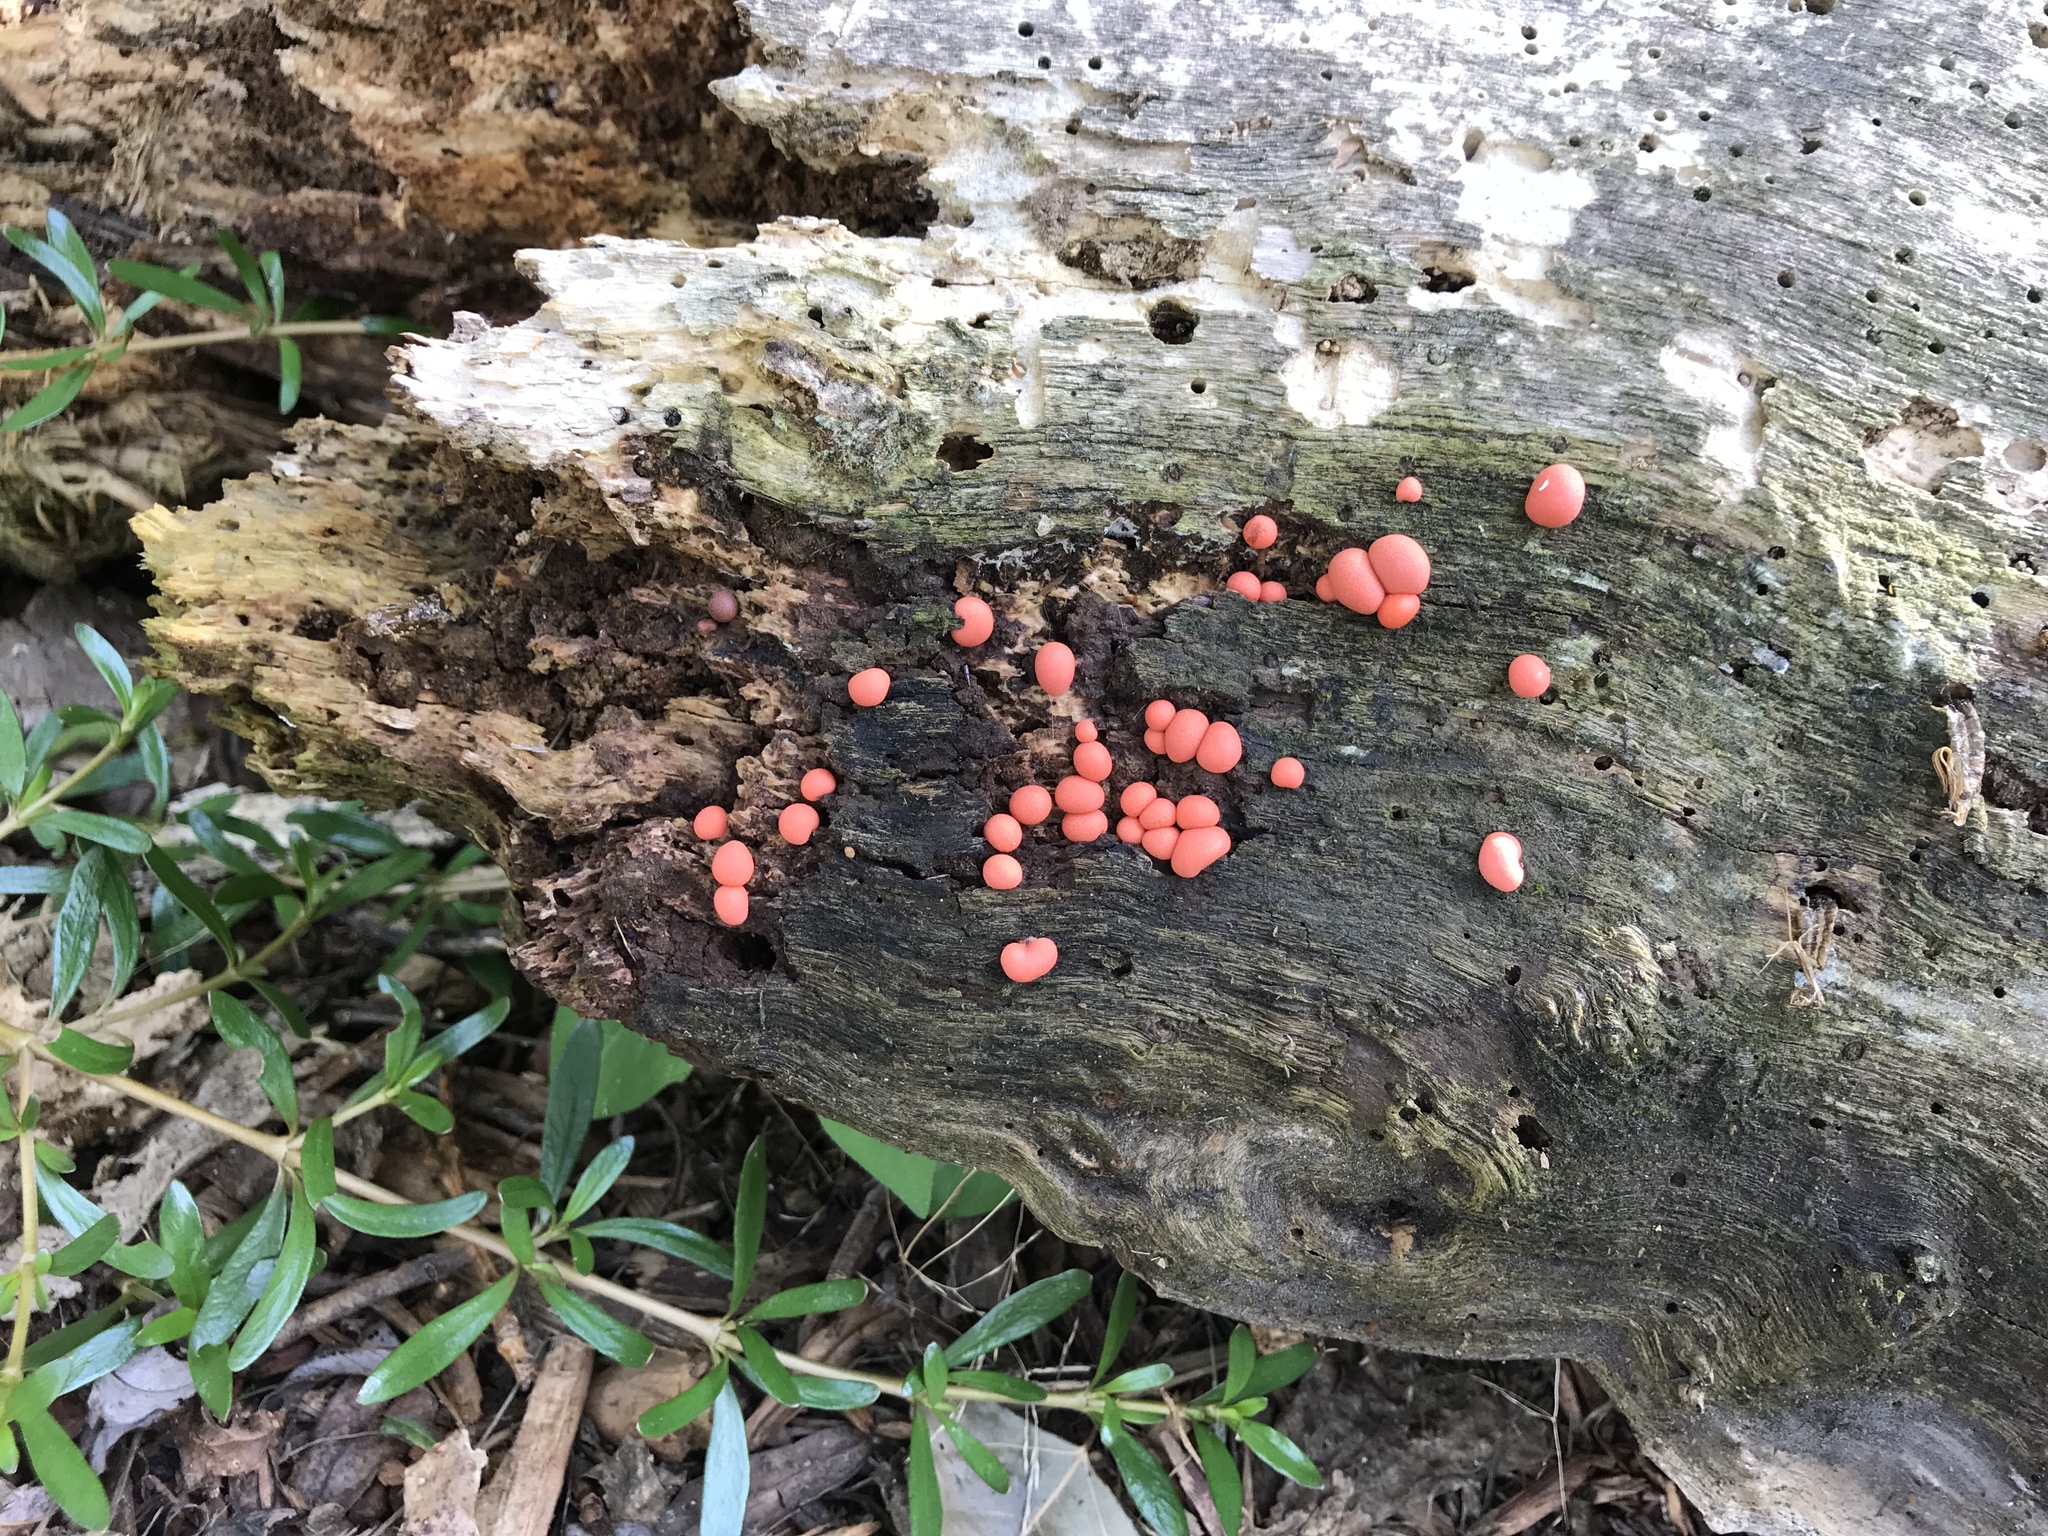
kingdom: Protozoa
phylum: Mycetozoa
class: Myxomycetes
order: Cribrariales
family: Tubiferaceae
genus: Lycogala
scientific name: Lycogala epidendrum
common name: Wolf's milk
